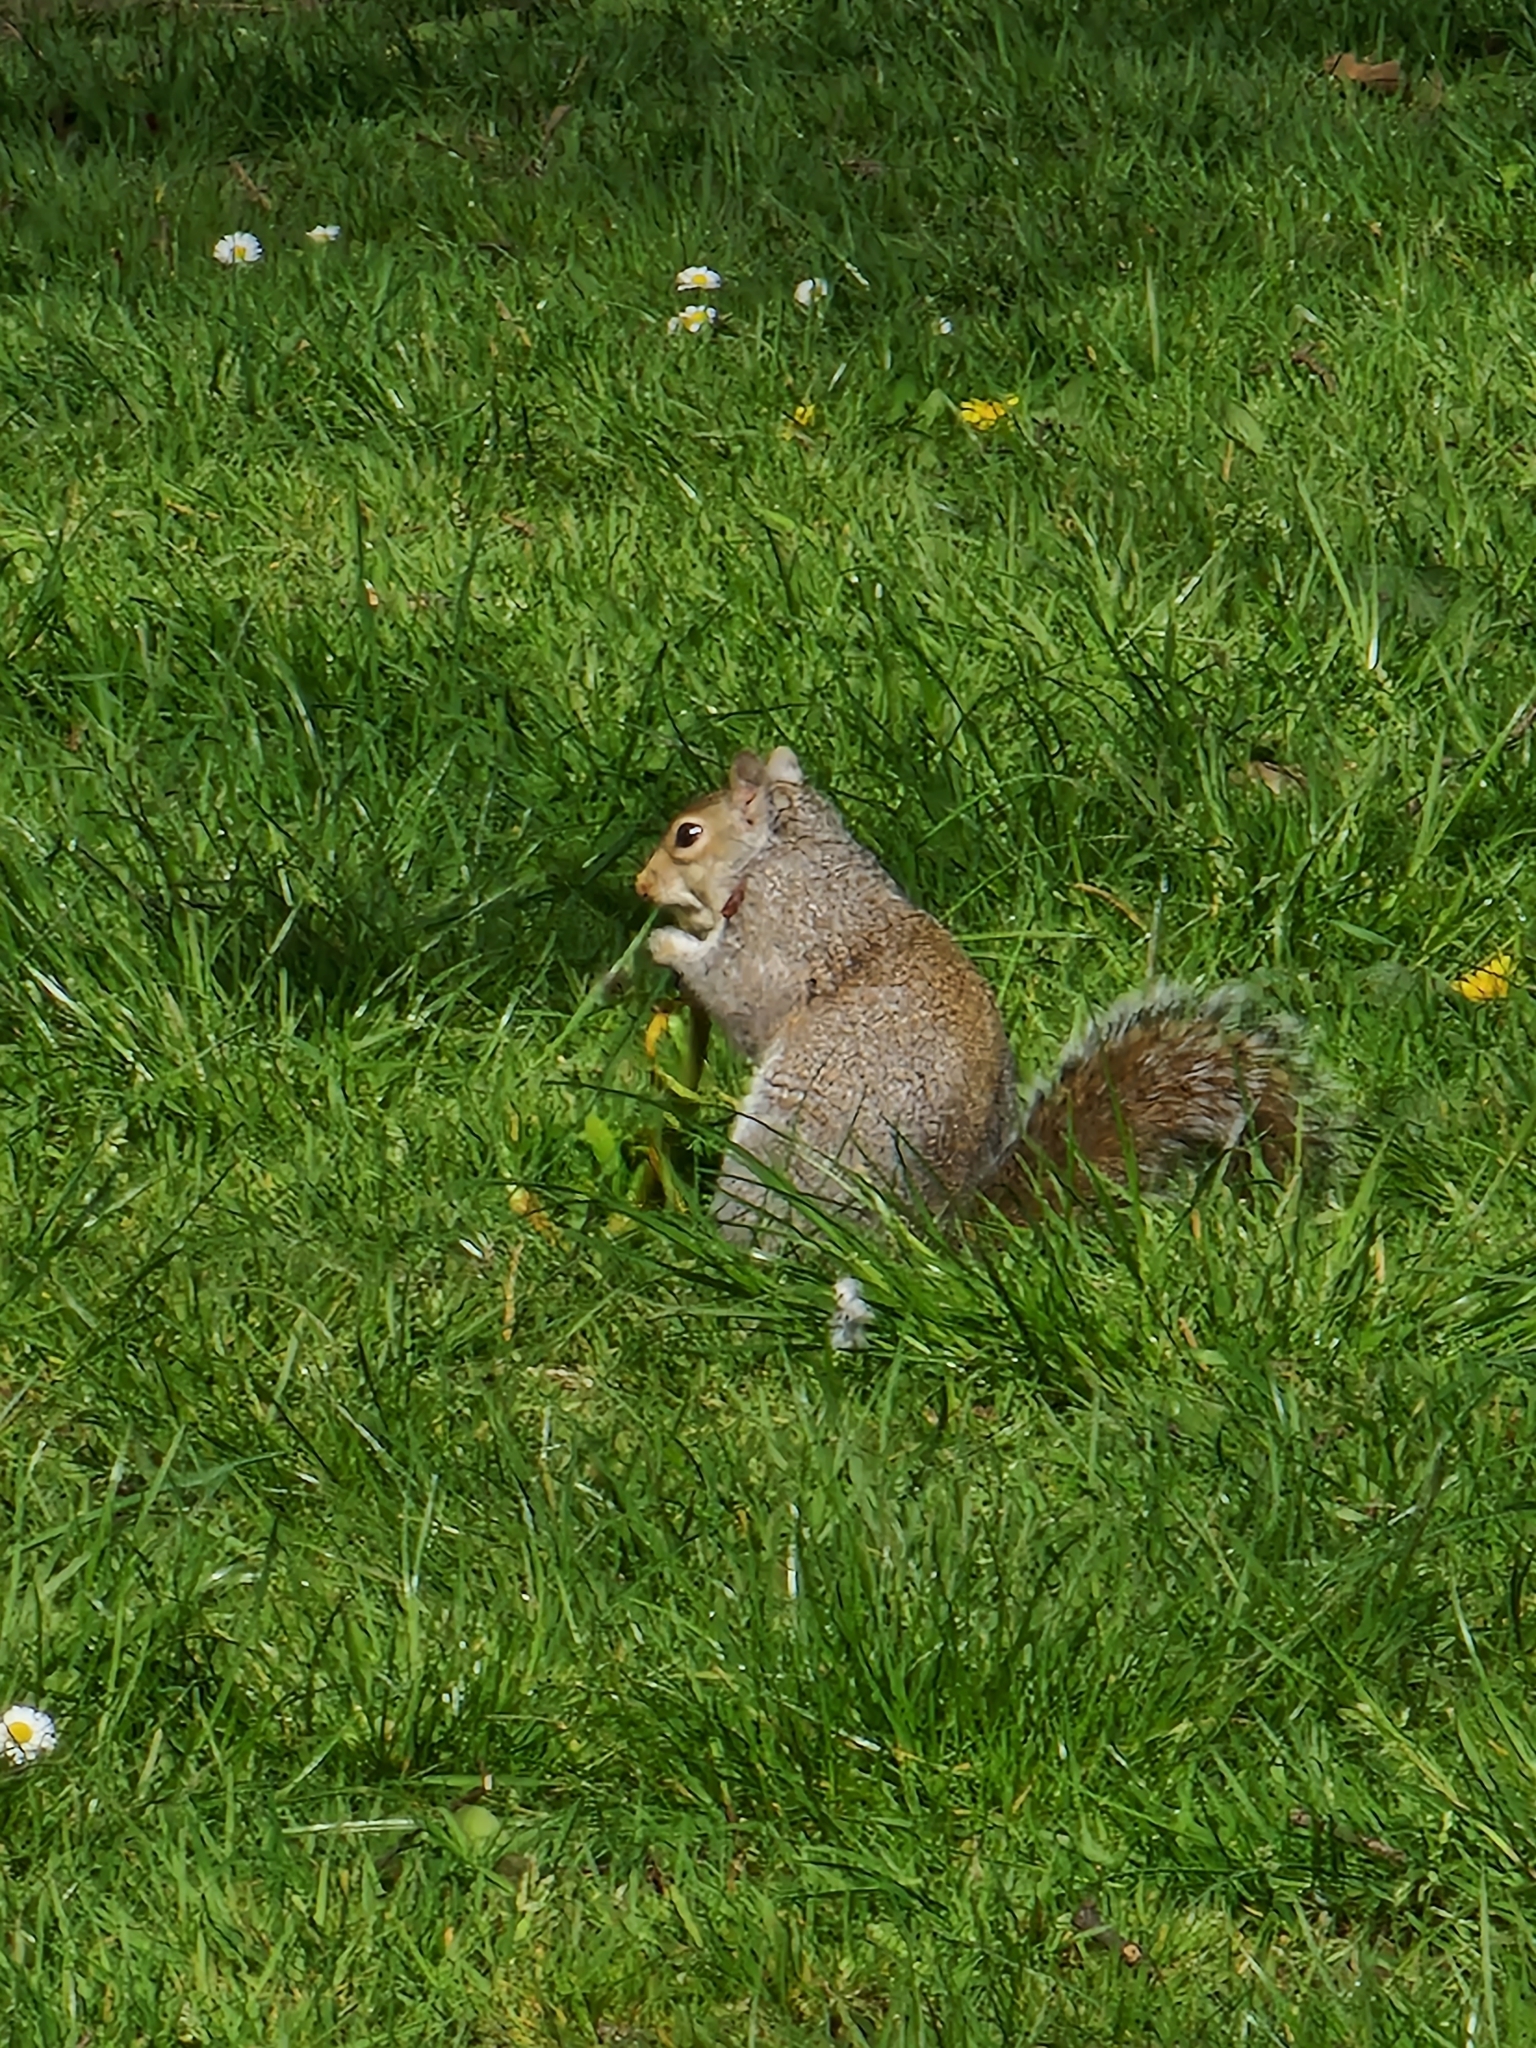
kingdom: Animalia
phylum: Chordata
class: Mammalia
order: Rodentia
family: Sciuridae
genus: Sciurus
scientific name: Sciurus carolinensis
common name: Eastern gray squirrel
